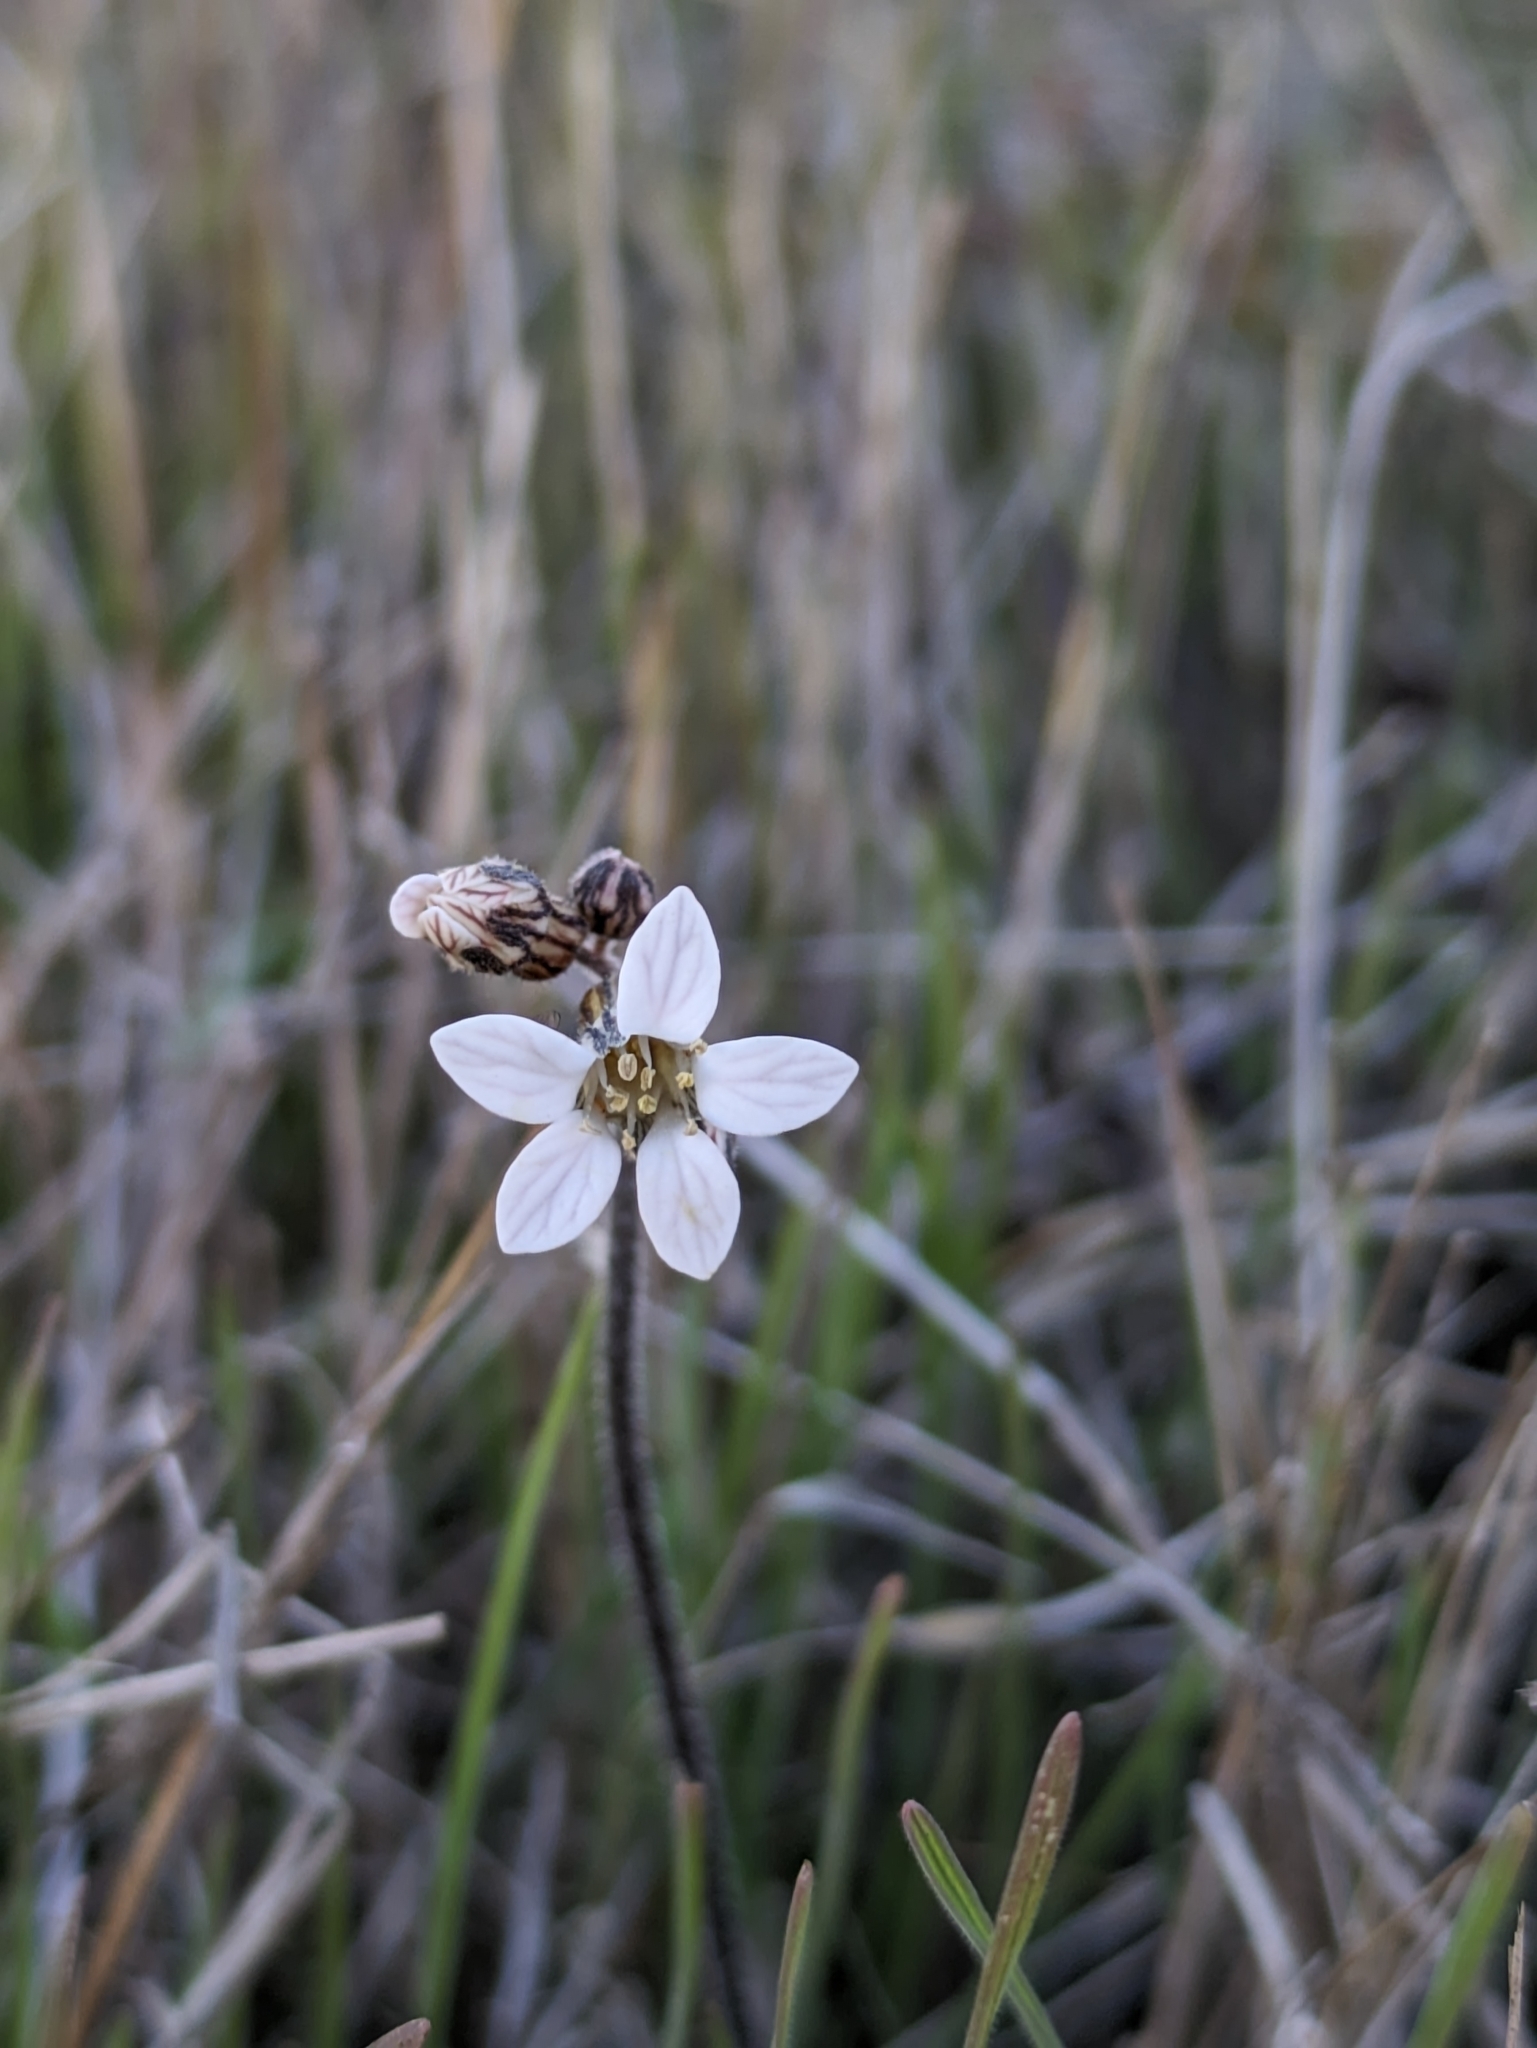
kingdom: Plantae
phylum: Tracheophyta
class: Magnoliopsida
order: Saxifragales
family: Saxifragaceae
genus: Jepsonia
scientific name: Jepsonia parryi
